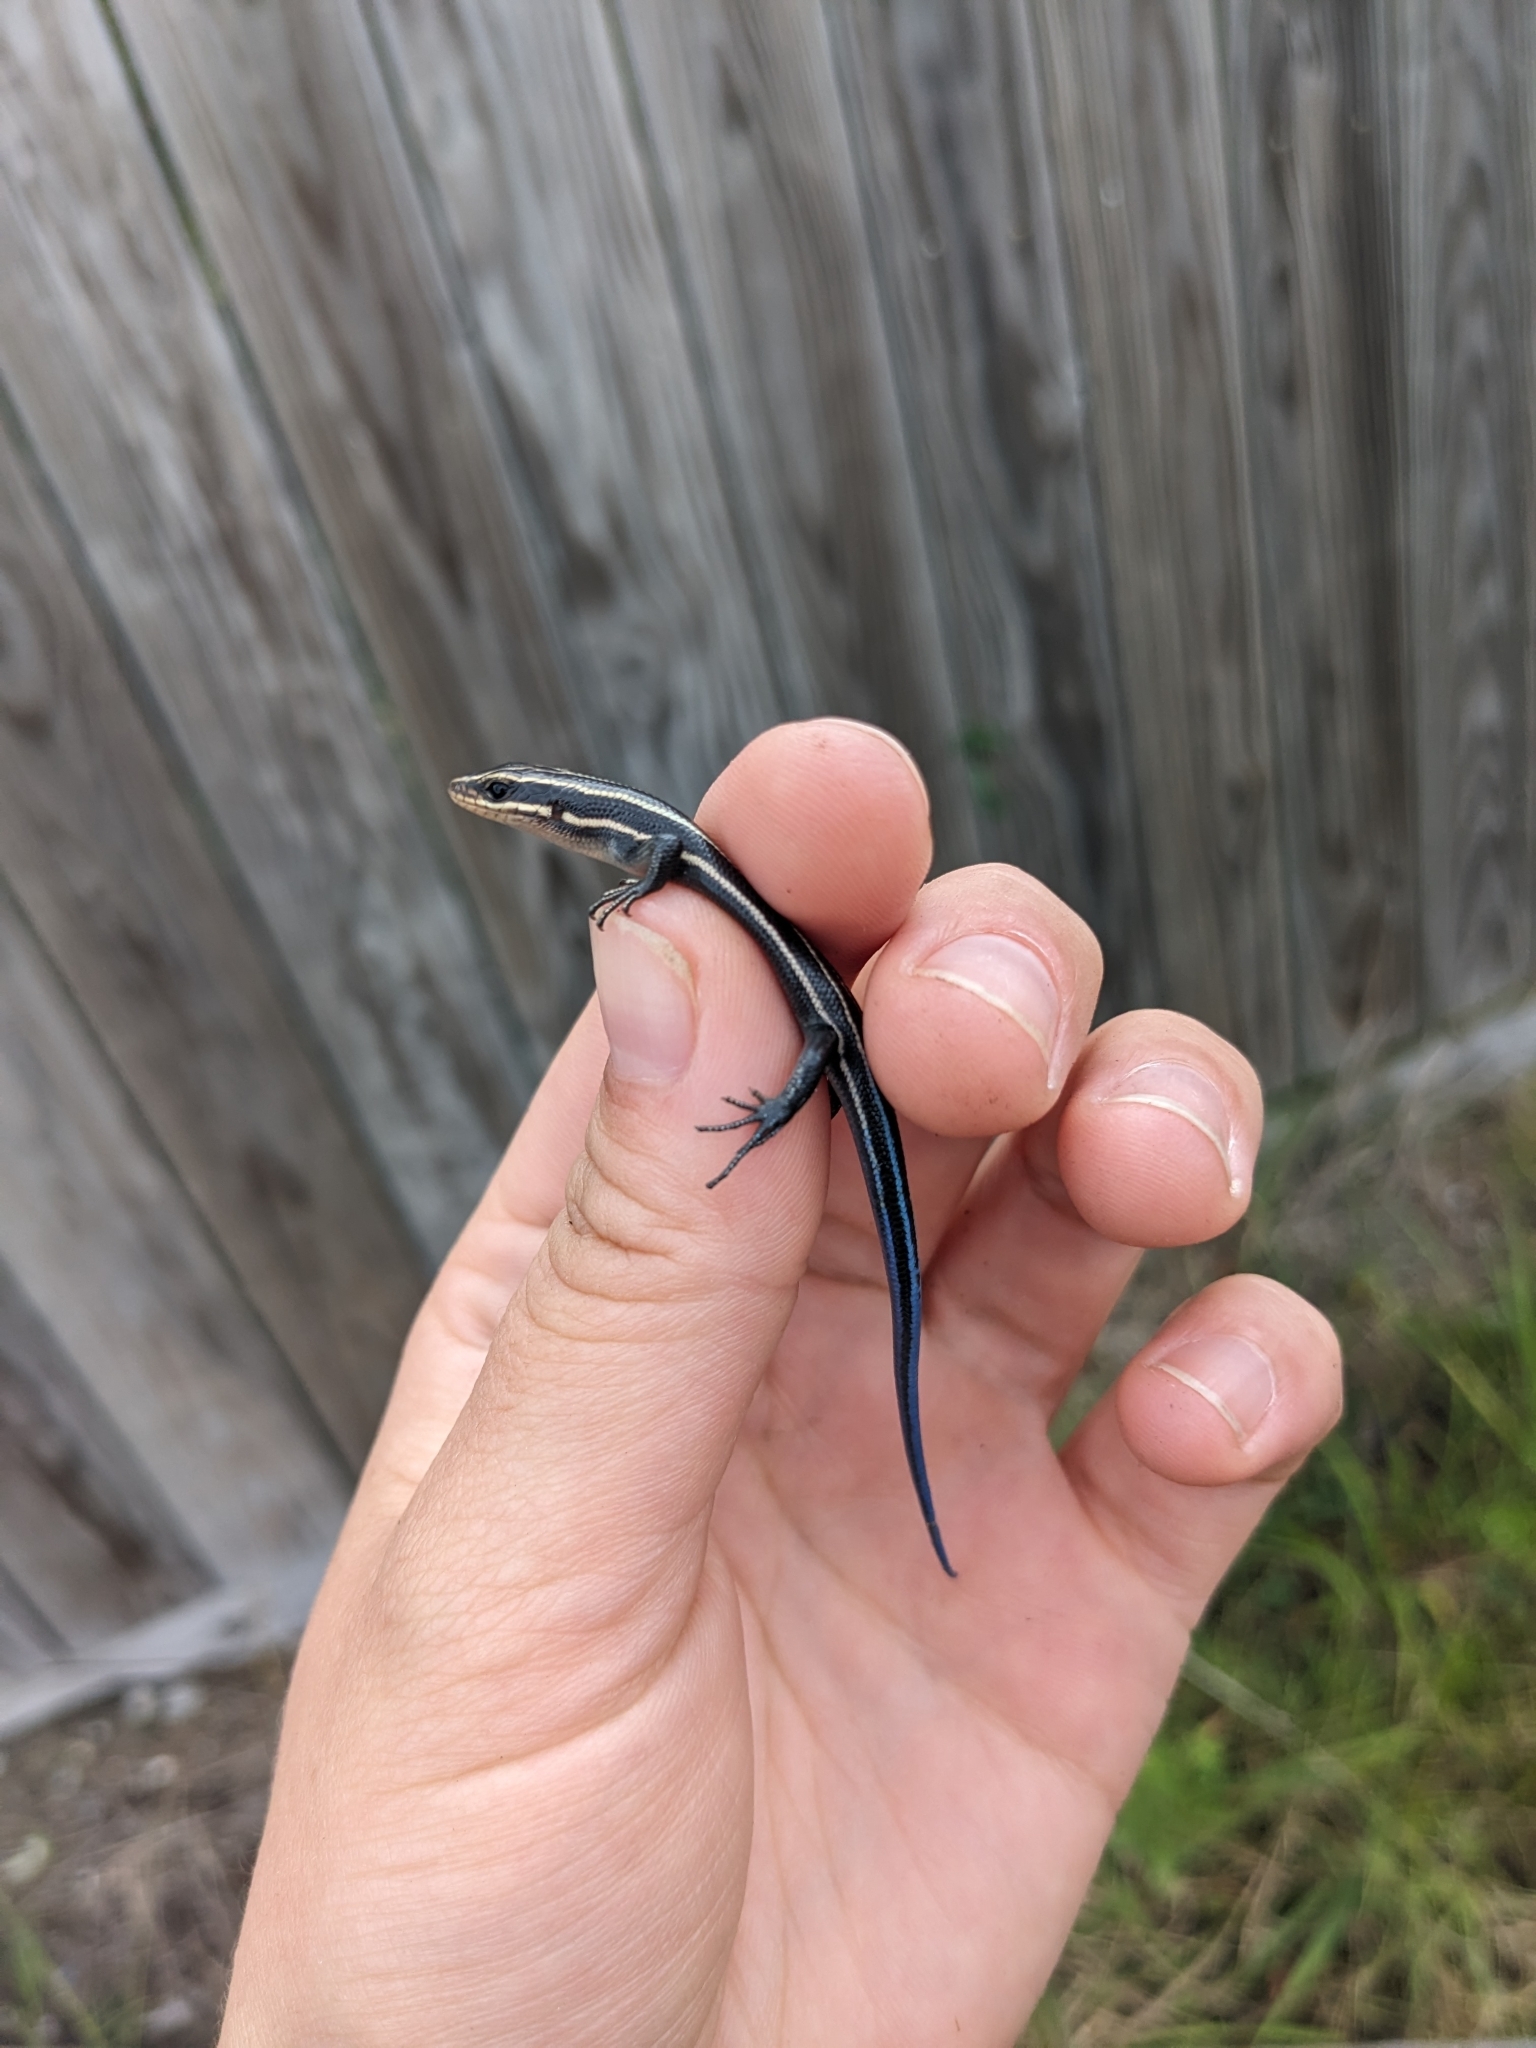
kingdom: Animalia
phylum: Chordata
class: Squamata
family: Scincidae
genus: Plestiodon
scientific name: Plestiodon fasciatus
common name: Five-lined skink
